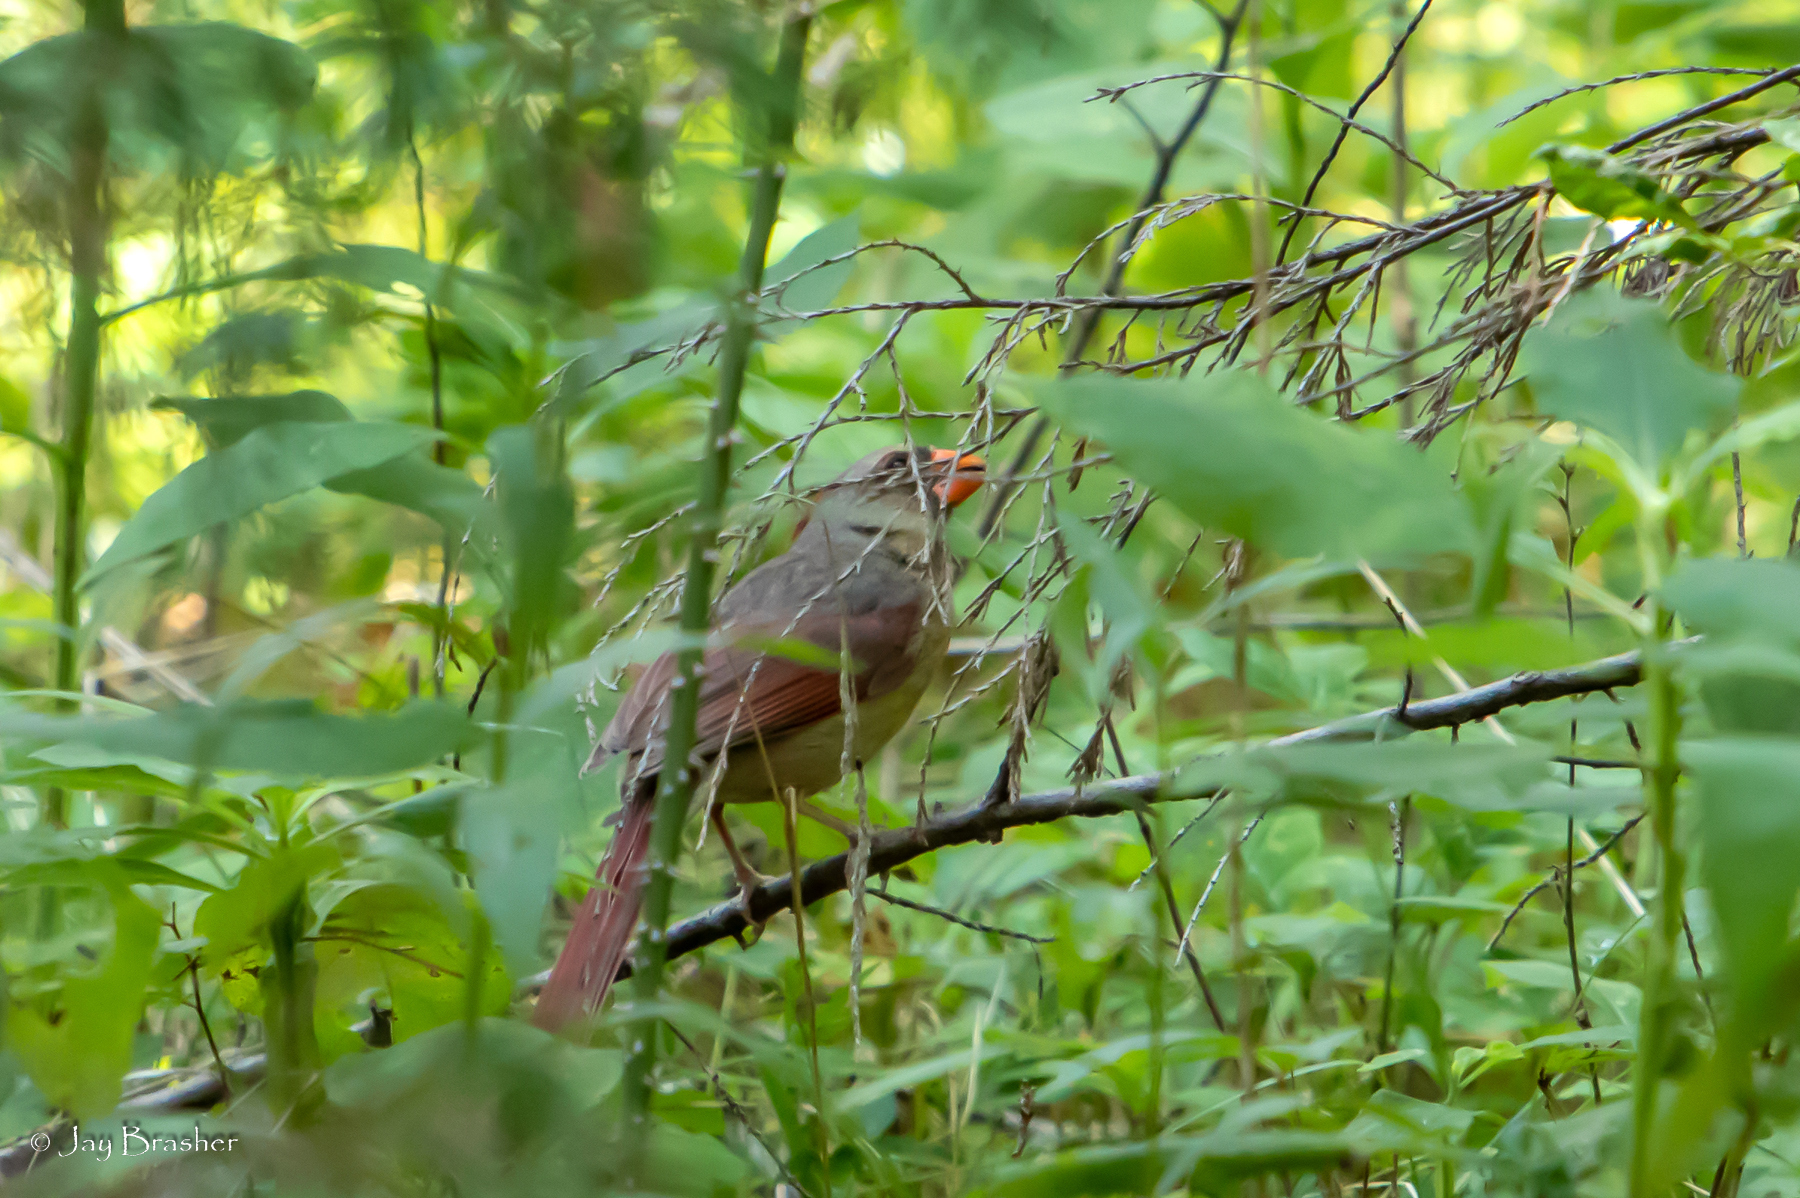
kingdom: Animalia
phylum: Chordata
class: Aves
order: Passeriformes
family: Cardinalidae
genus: Cardinalis
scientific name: Cardinalis cardinalis
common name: Northern cardinal
